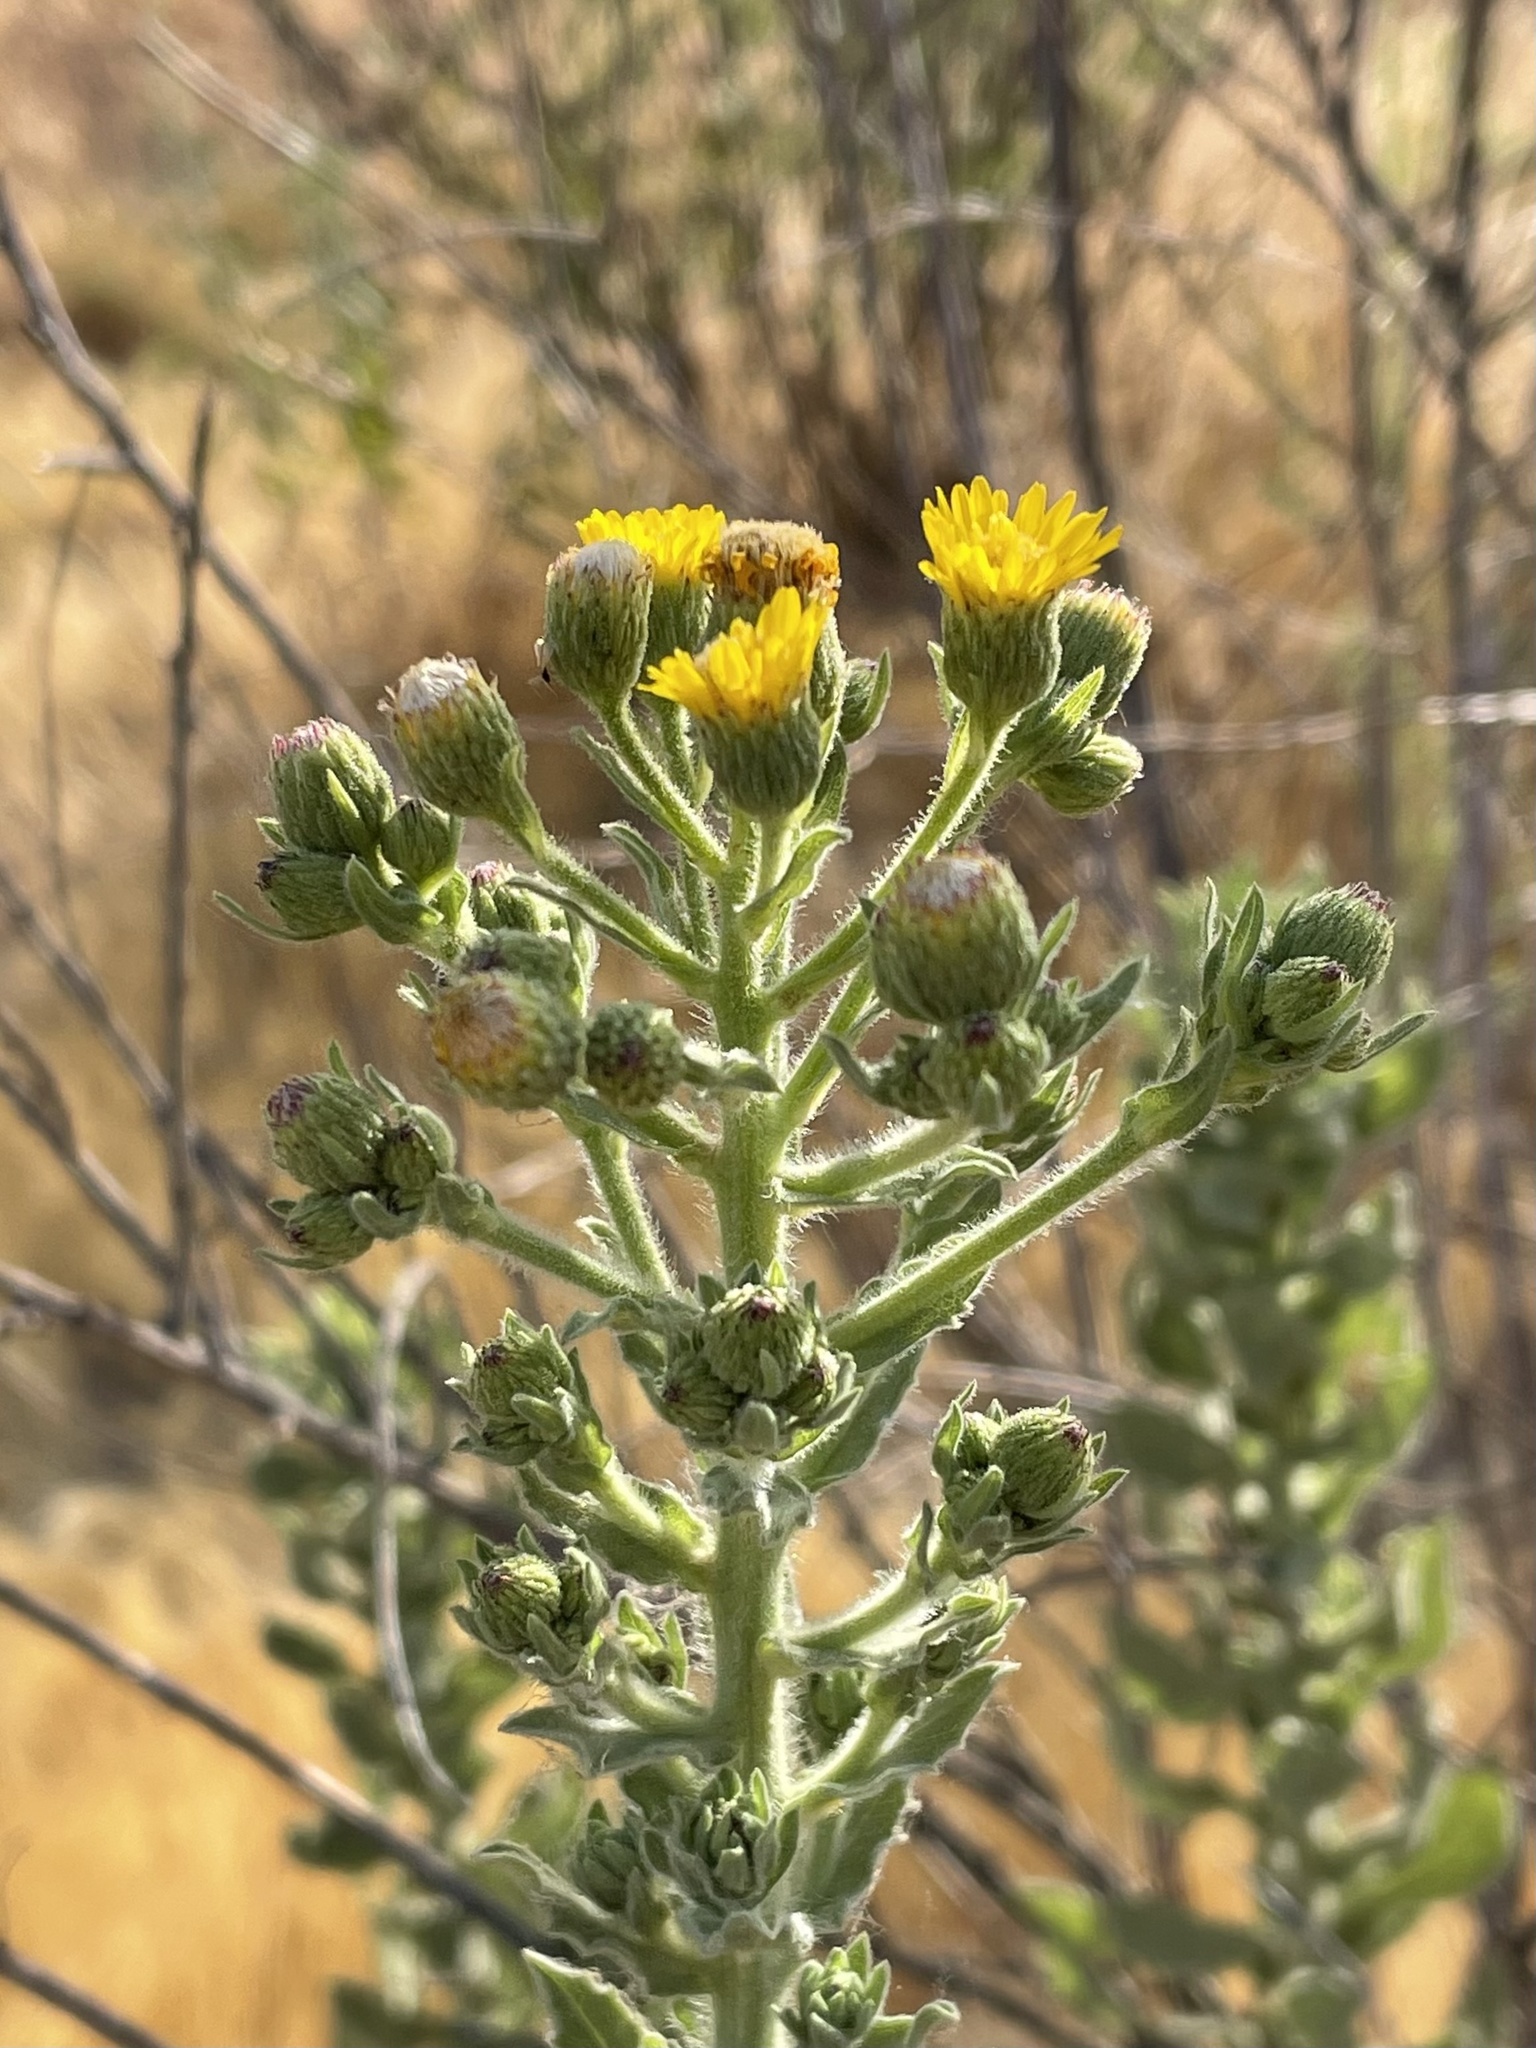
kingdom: Plantae
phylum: Tracheophyta
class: Magnoliopsida
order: Asterales
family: Asteraceae
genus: Heterotheca
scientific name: Heterotheca grandiflora
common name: Telegraphweed
